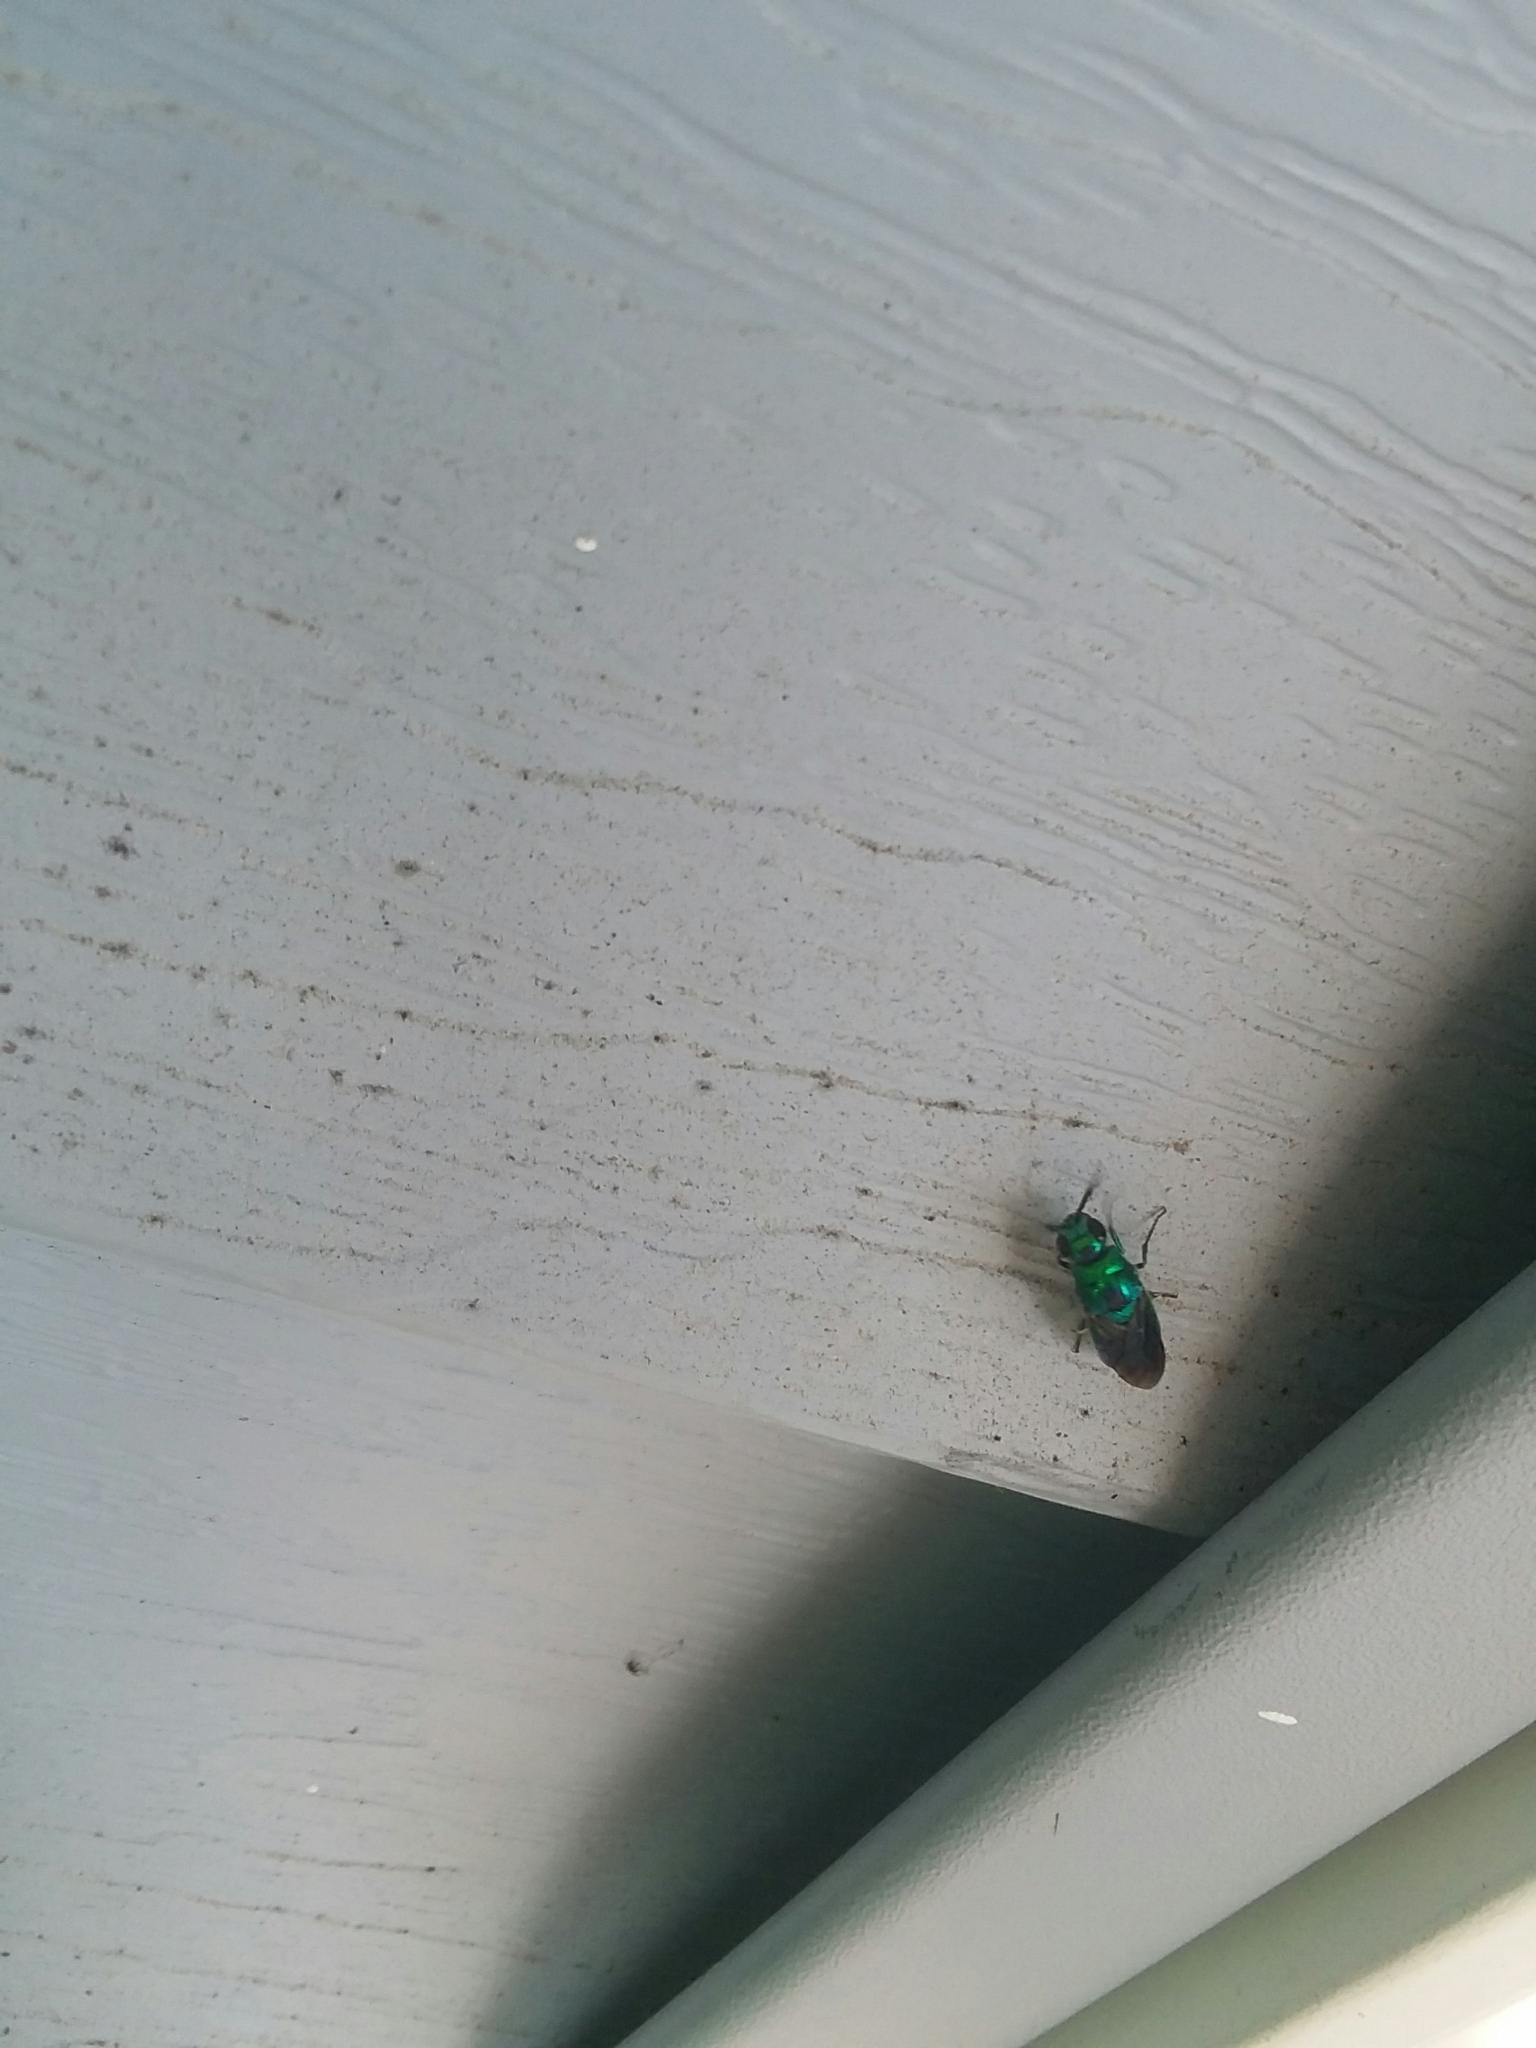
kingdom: Animalia
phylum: Arthropoda
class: Insecta
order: Hymenoptera
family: Chrysididae
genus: Chrysis
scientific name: Chrysis angolensis
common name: Cuckoo wasp
